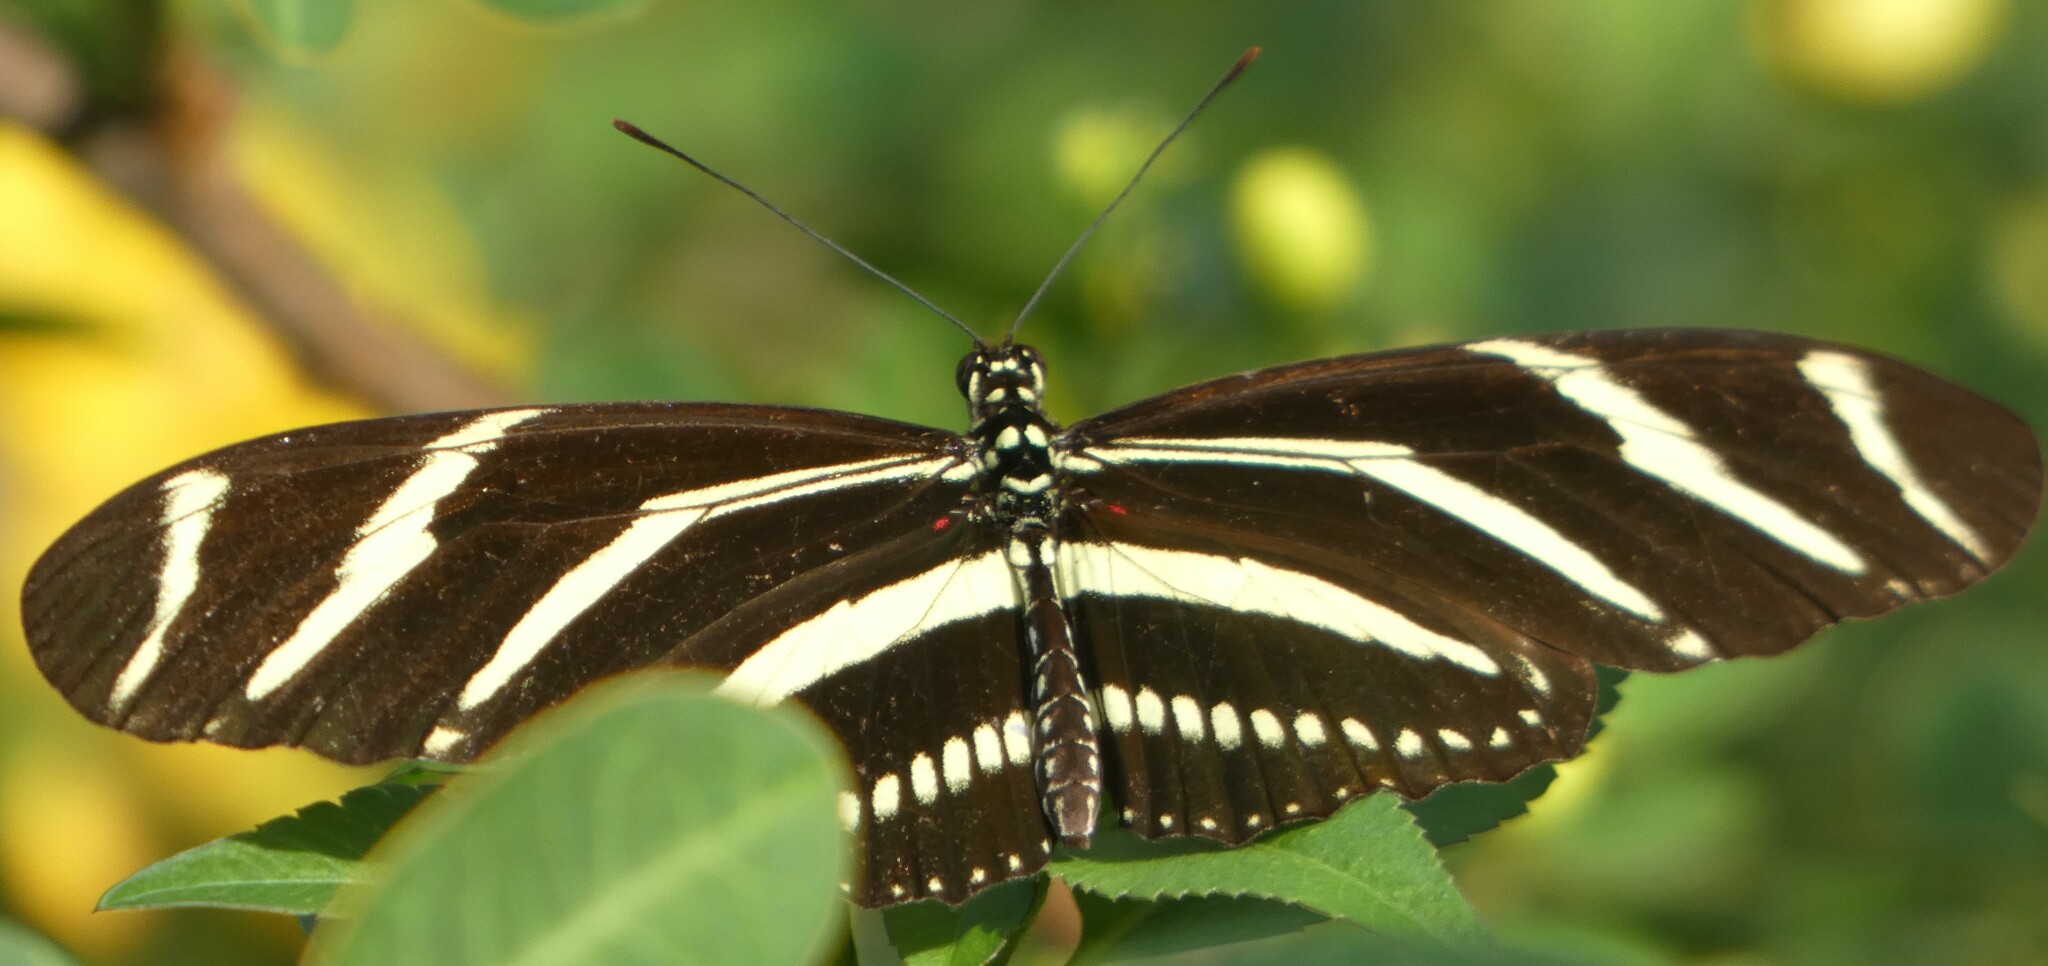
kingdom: Animalia
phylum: Arthropoda
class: Insecta
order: Lepidoptera
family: Nymphalidae
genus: Heliconius
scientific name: Heliconius charithonia
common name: Zebra long wing
